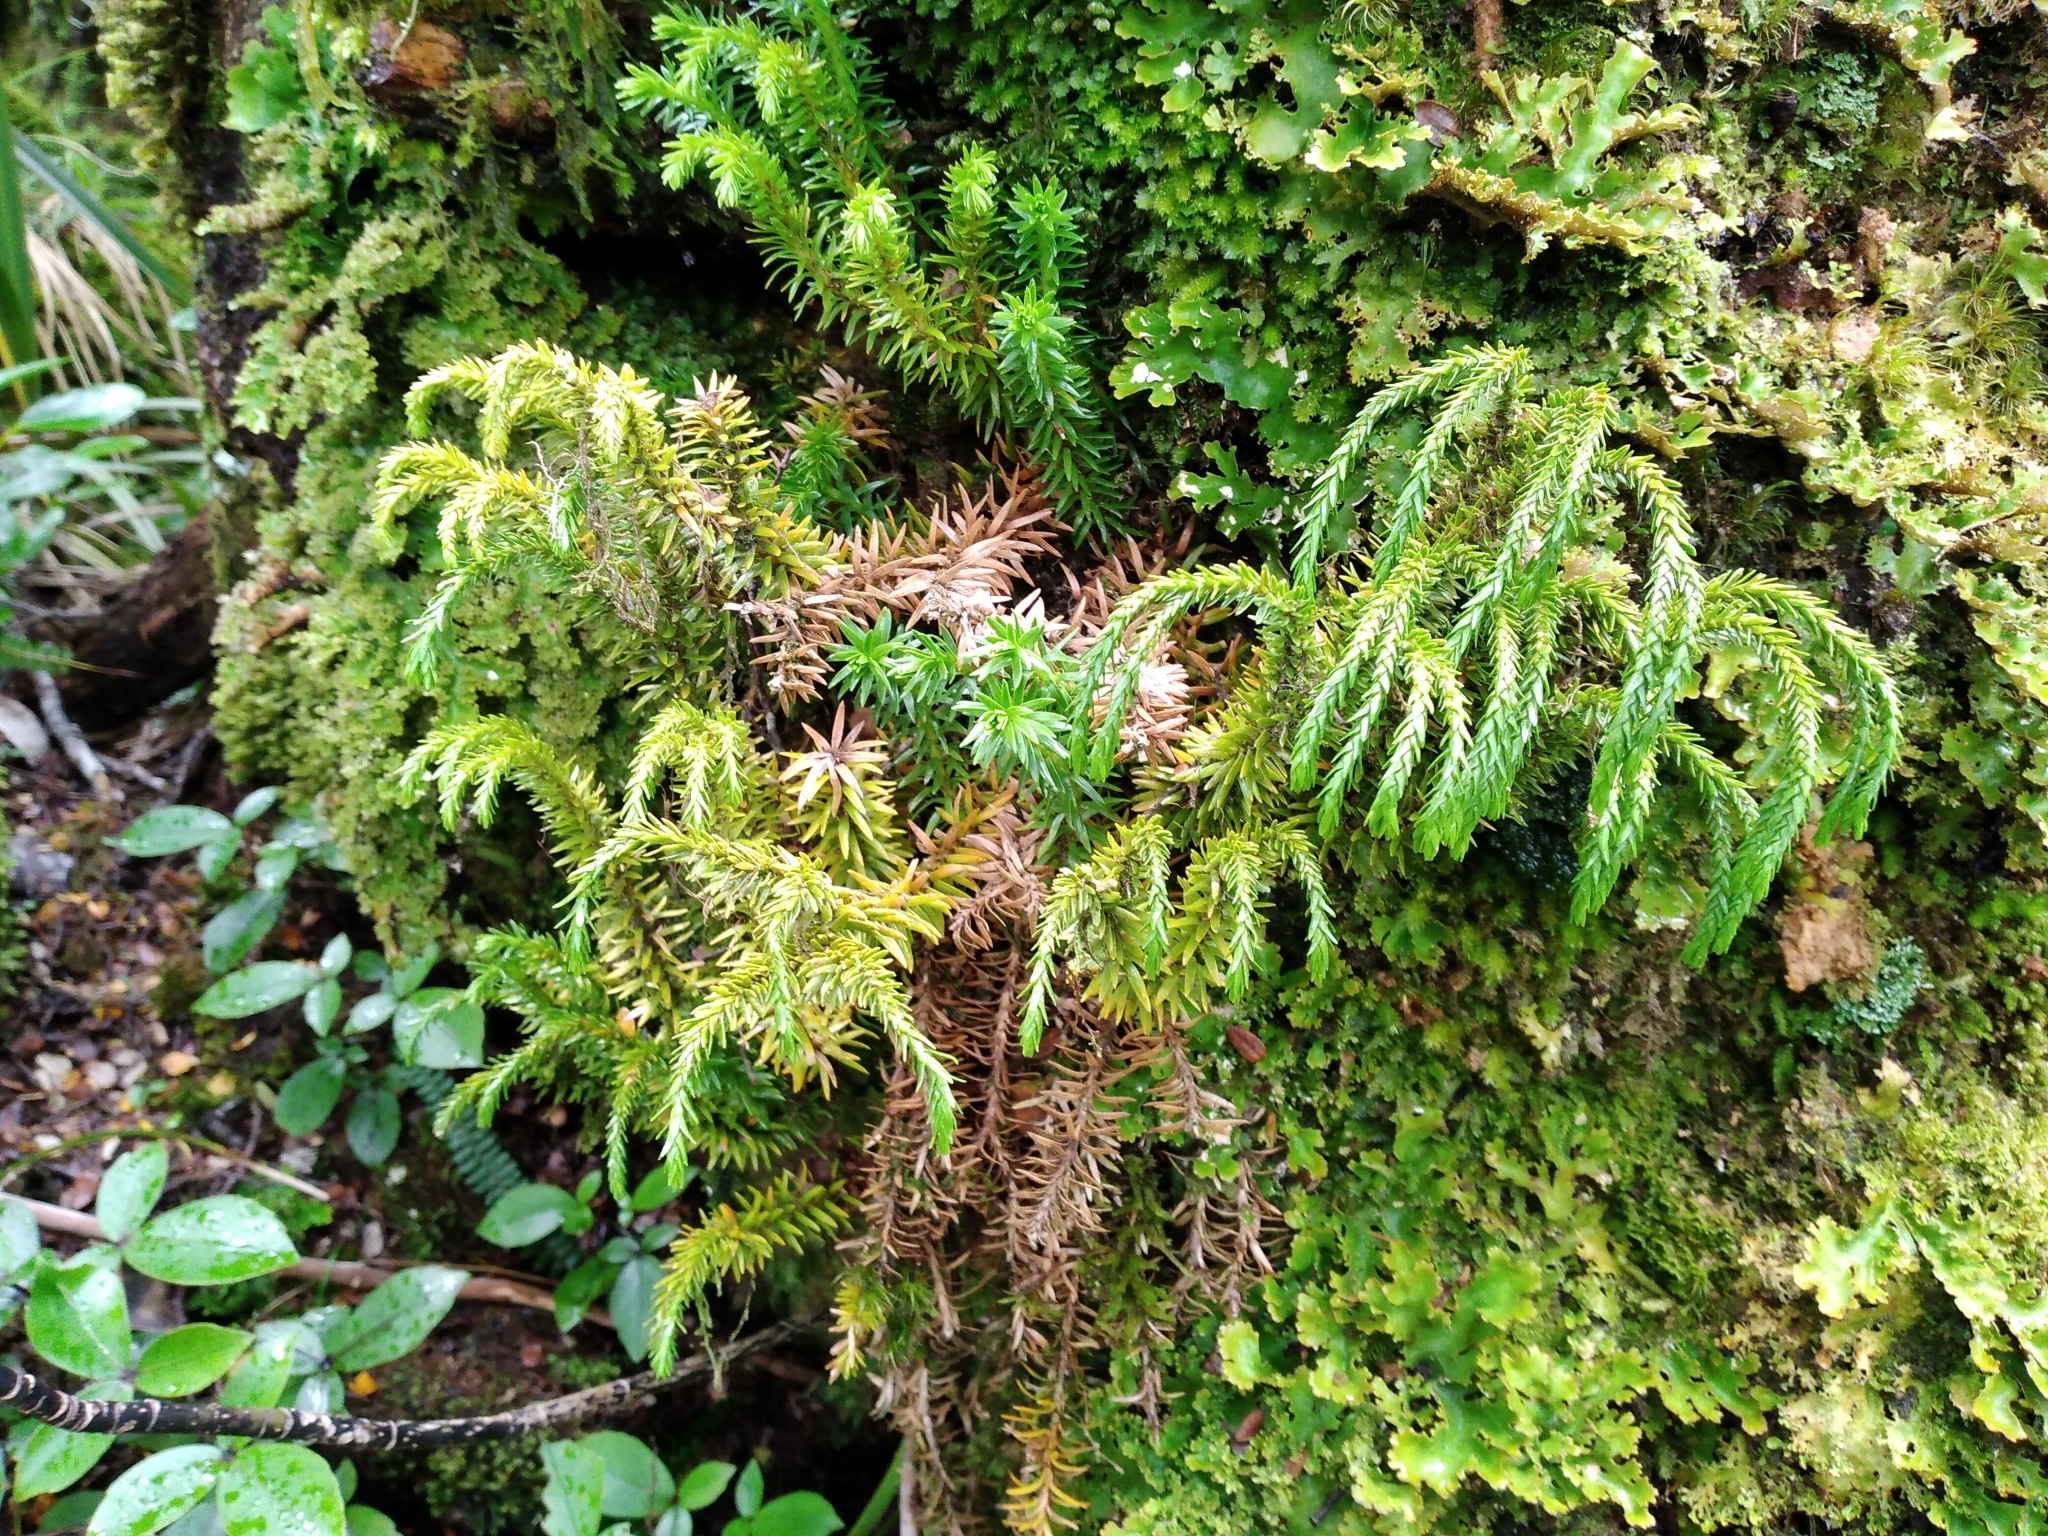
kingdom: Plantae
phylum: Tracheophyta
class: Lycopodiopsida
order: Lycopodiales
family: Lycopodiaceae
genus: Phlegmariurus
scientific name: Phlegmariurus varius
